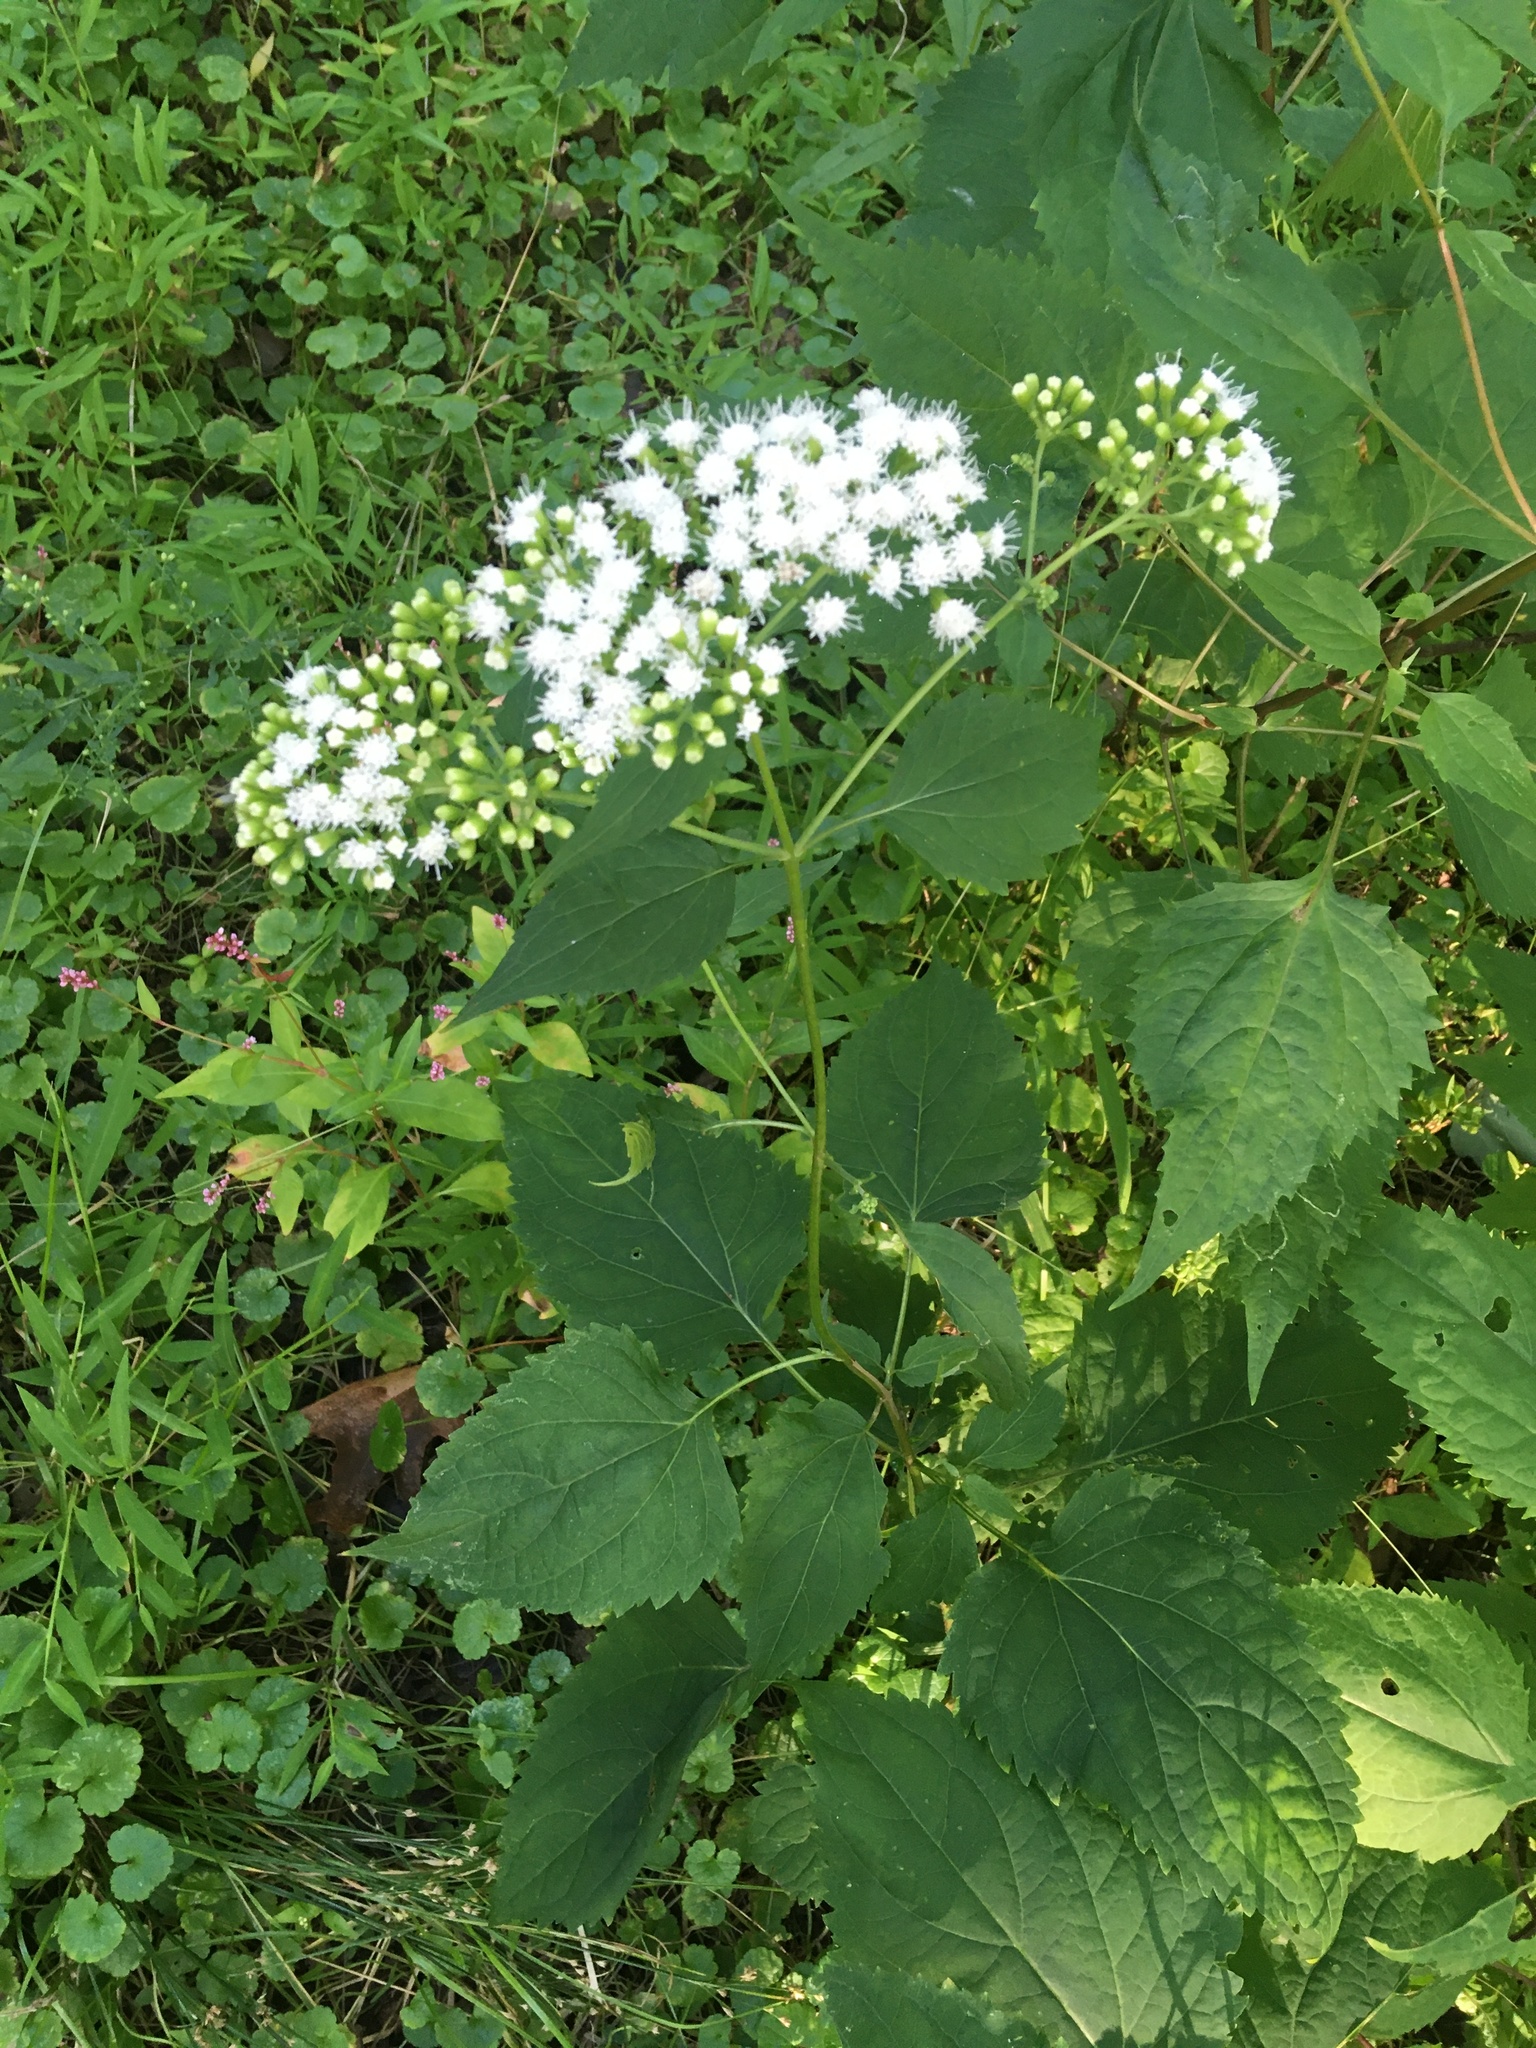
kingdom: Plantae
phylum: Tracheophyta
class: Magnoliopsida
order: Asterales
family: Asteraceae
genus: Ageratina
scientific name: Ageratina altissima
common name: White snakeroot
